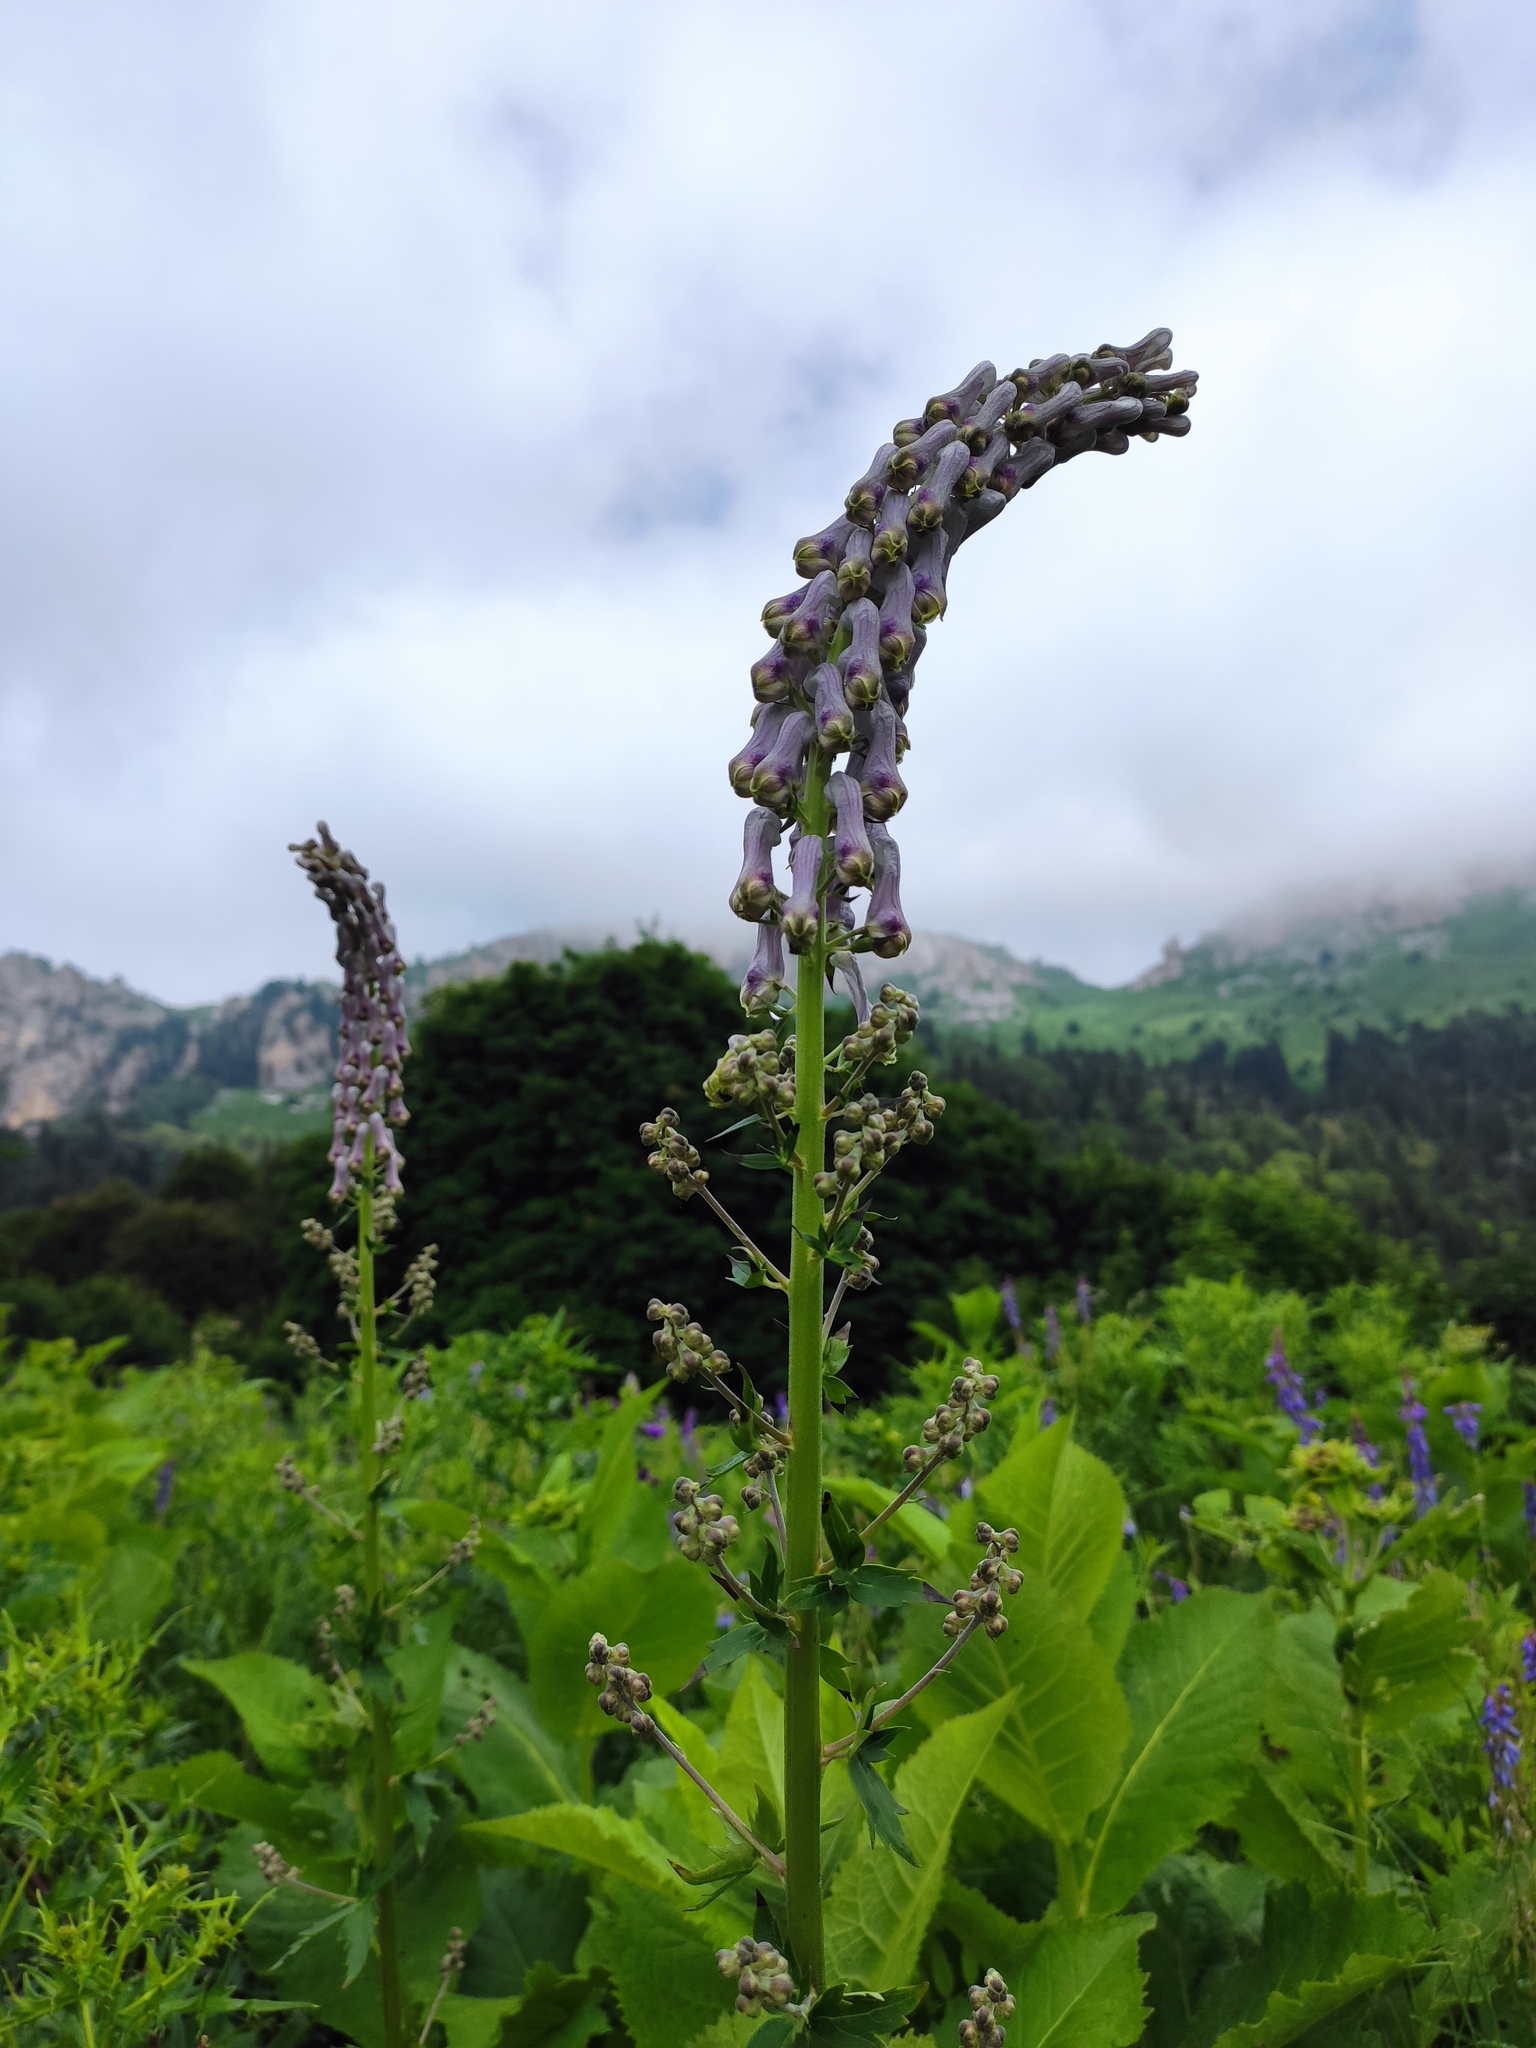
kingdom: Plantae
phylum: Tracheophyta
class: Magnoliopsida
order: Ranunculales
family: Ranunculaceae
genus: Aconitum
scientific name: Aconitum orientale
